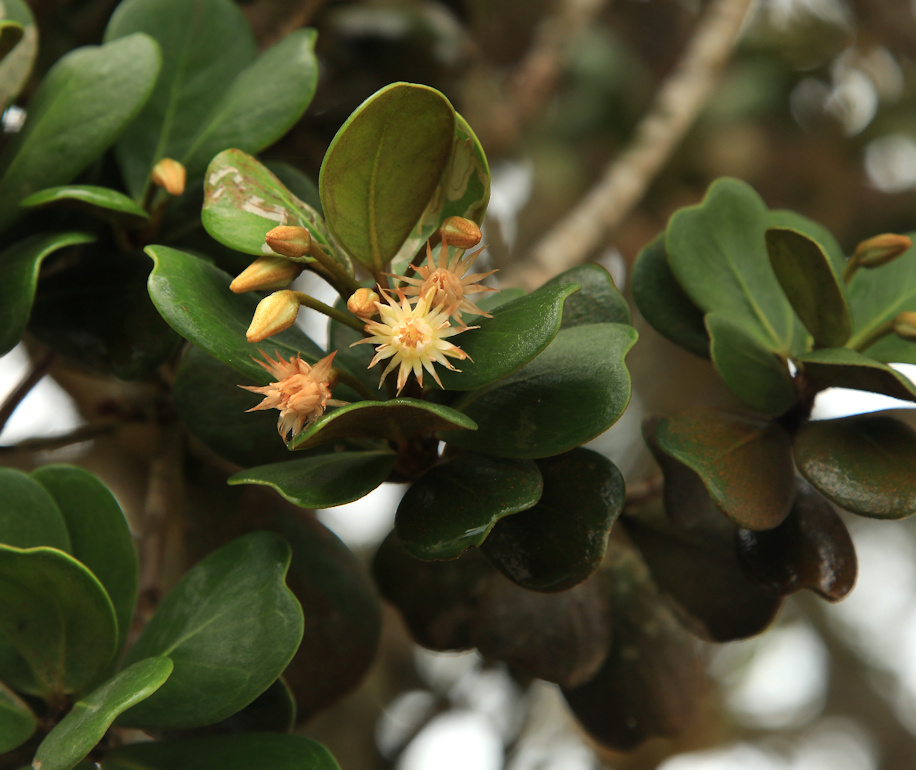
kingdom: Plantae
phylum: Tracheophyta
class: Magnoliopsida
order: Ericales
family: Sapotaceae
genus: Mimusops
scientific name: Mimusops caffra
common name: Coastal red milkwood
